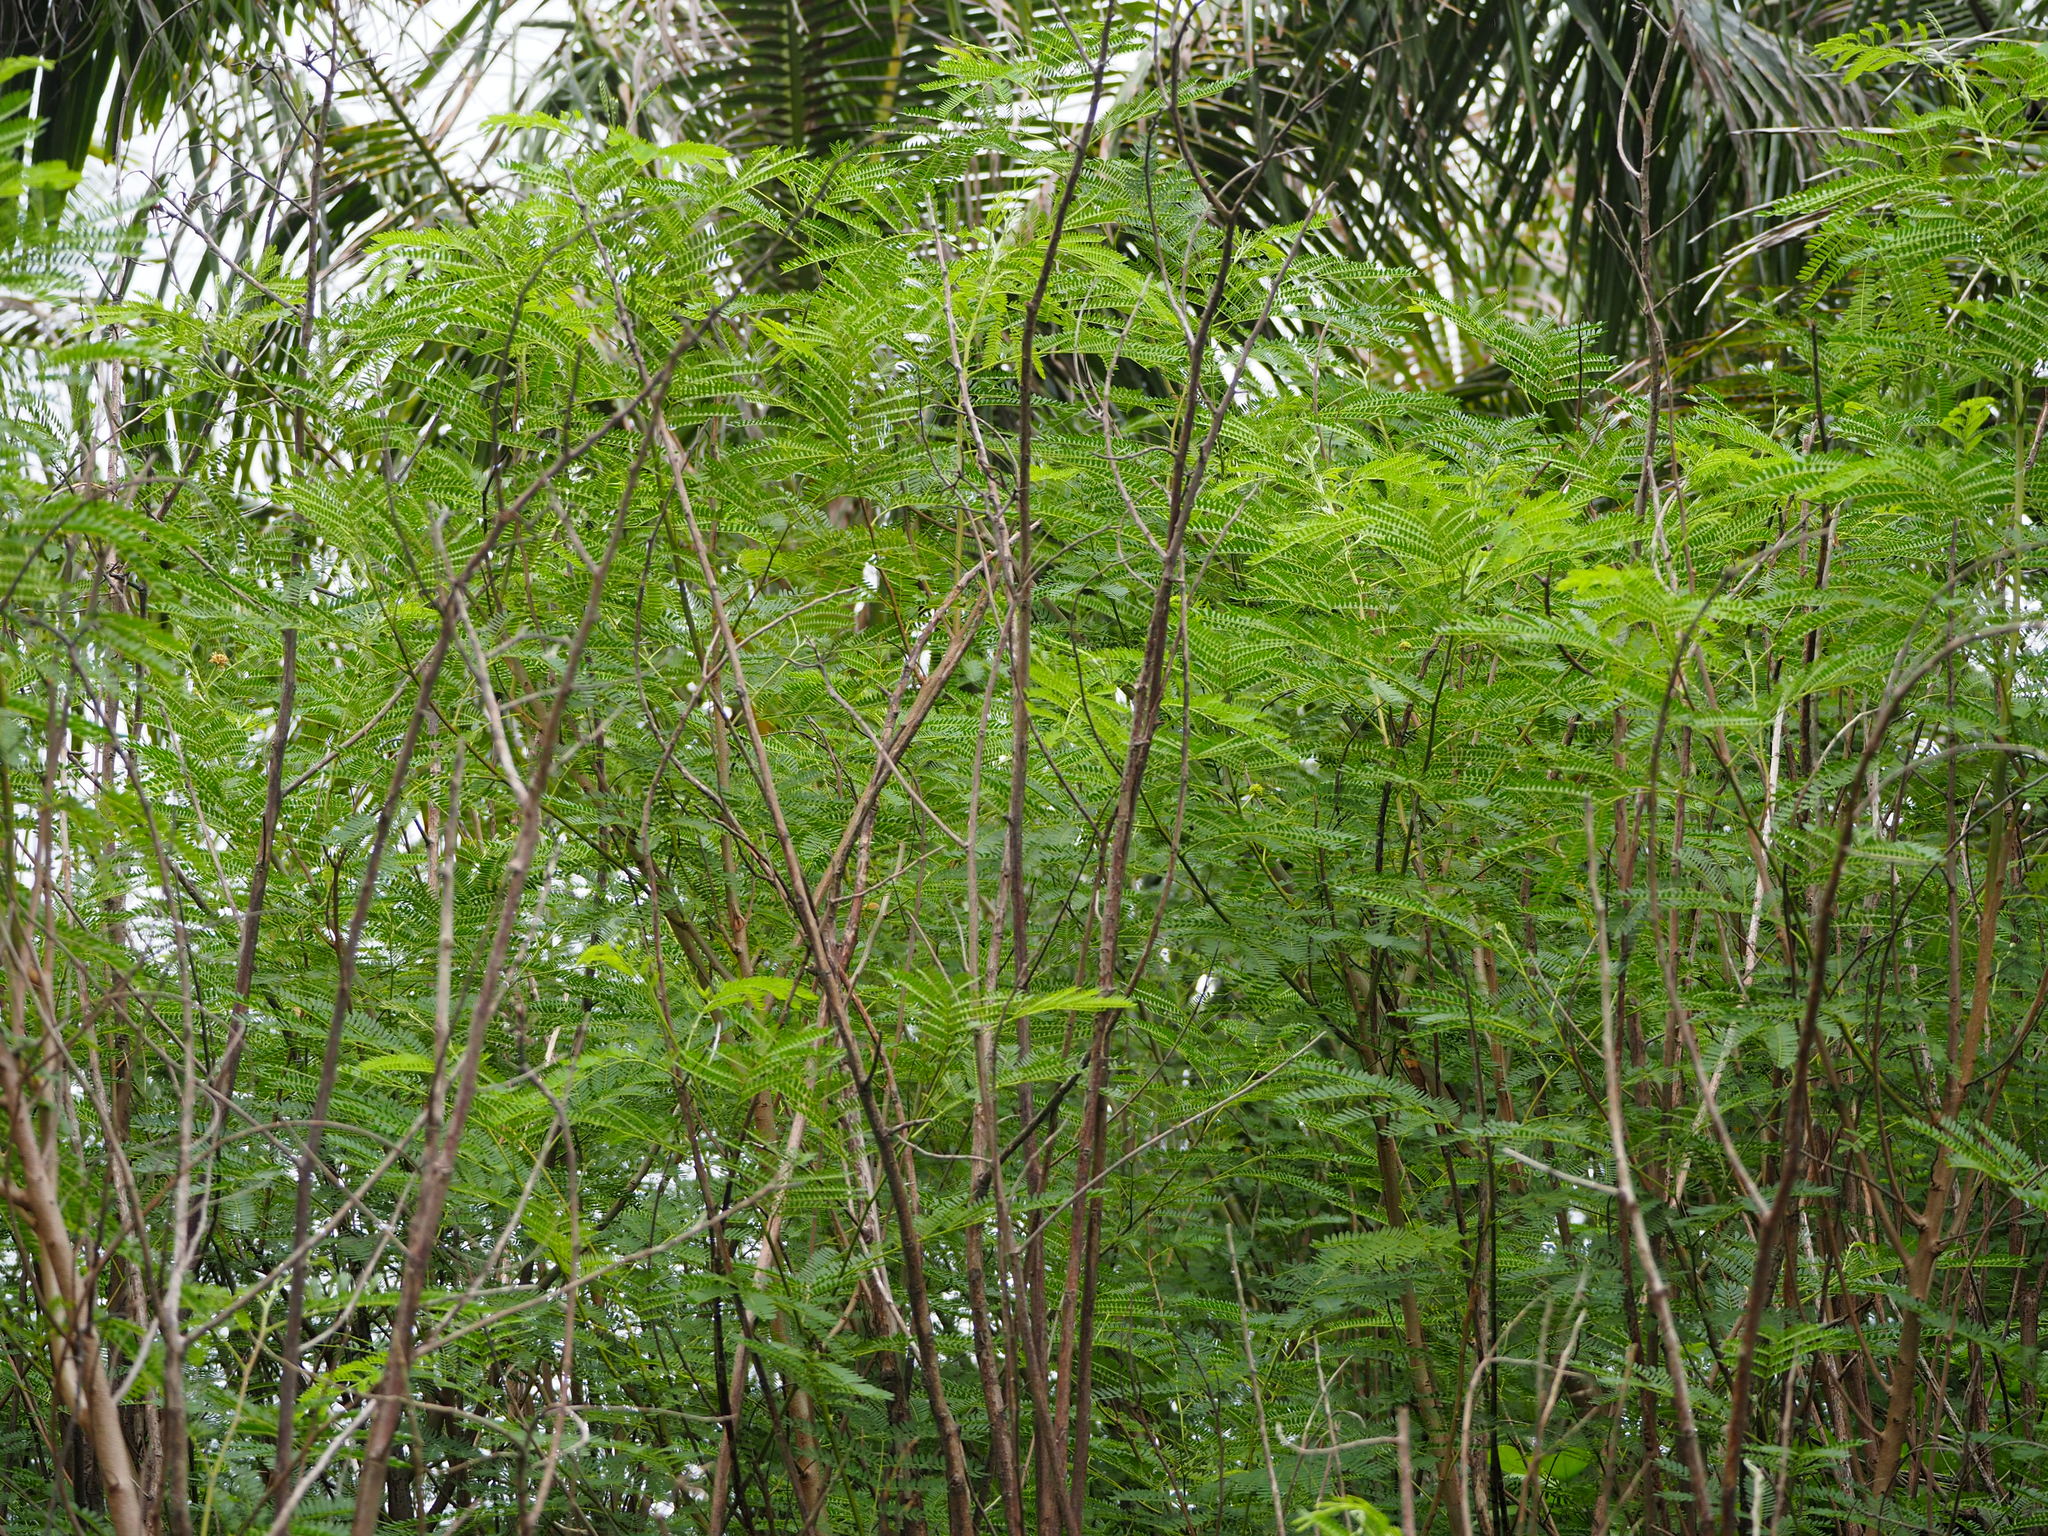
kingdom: Plantae
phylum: Tracheophyta
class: Magnoliopsida
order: Fabales
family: Fabaceae
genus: Leucaena
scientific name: Leucaena leucocephala
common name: White leadtree
